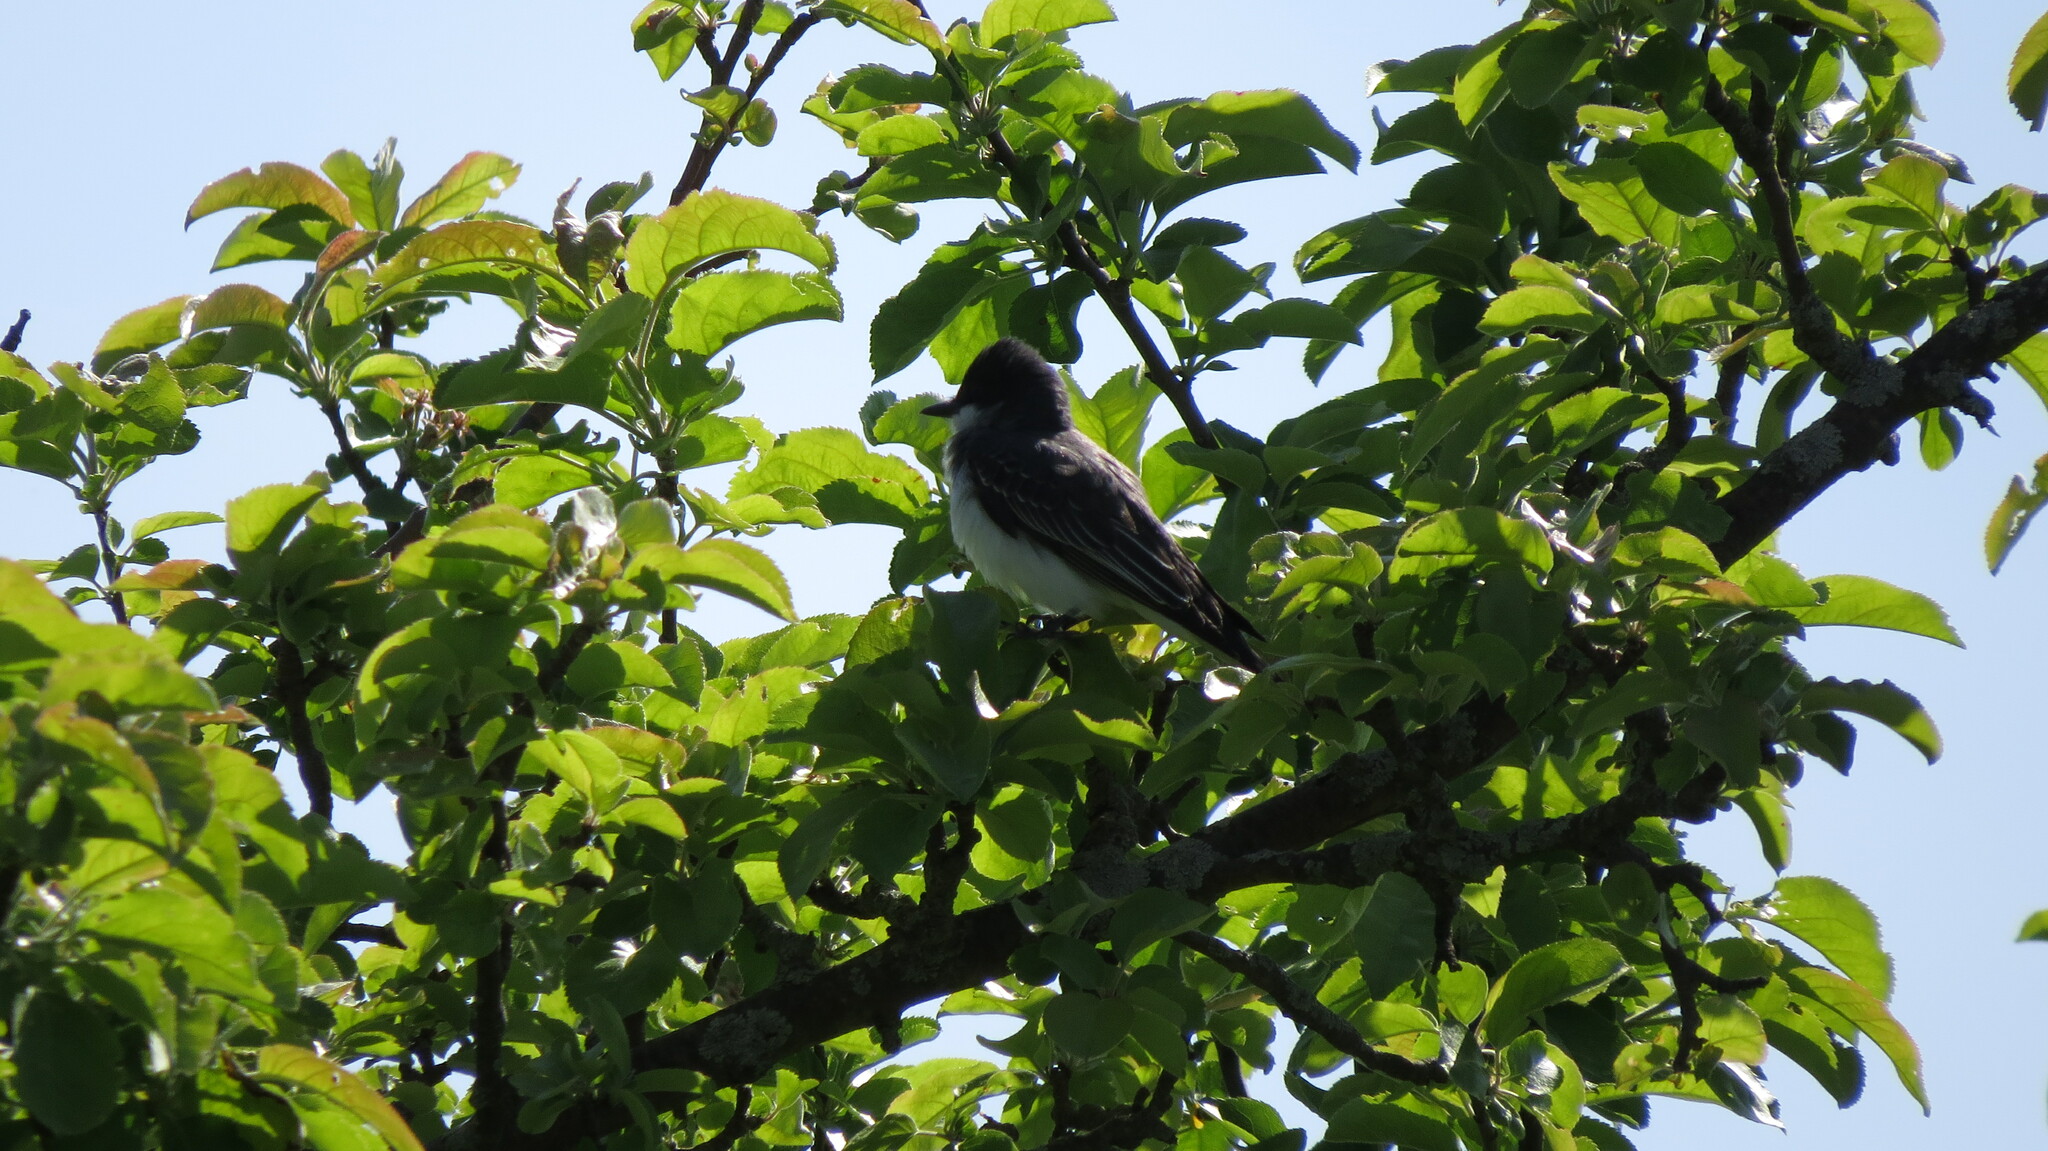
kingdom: Animalia
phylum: Chordata
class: Aves
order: Passeriformes
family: Tyrannidae
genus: Tyrannus
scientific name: Tyrannus tyrannus
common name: Eastern kingbird
